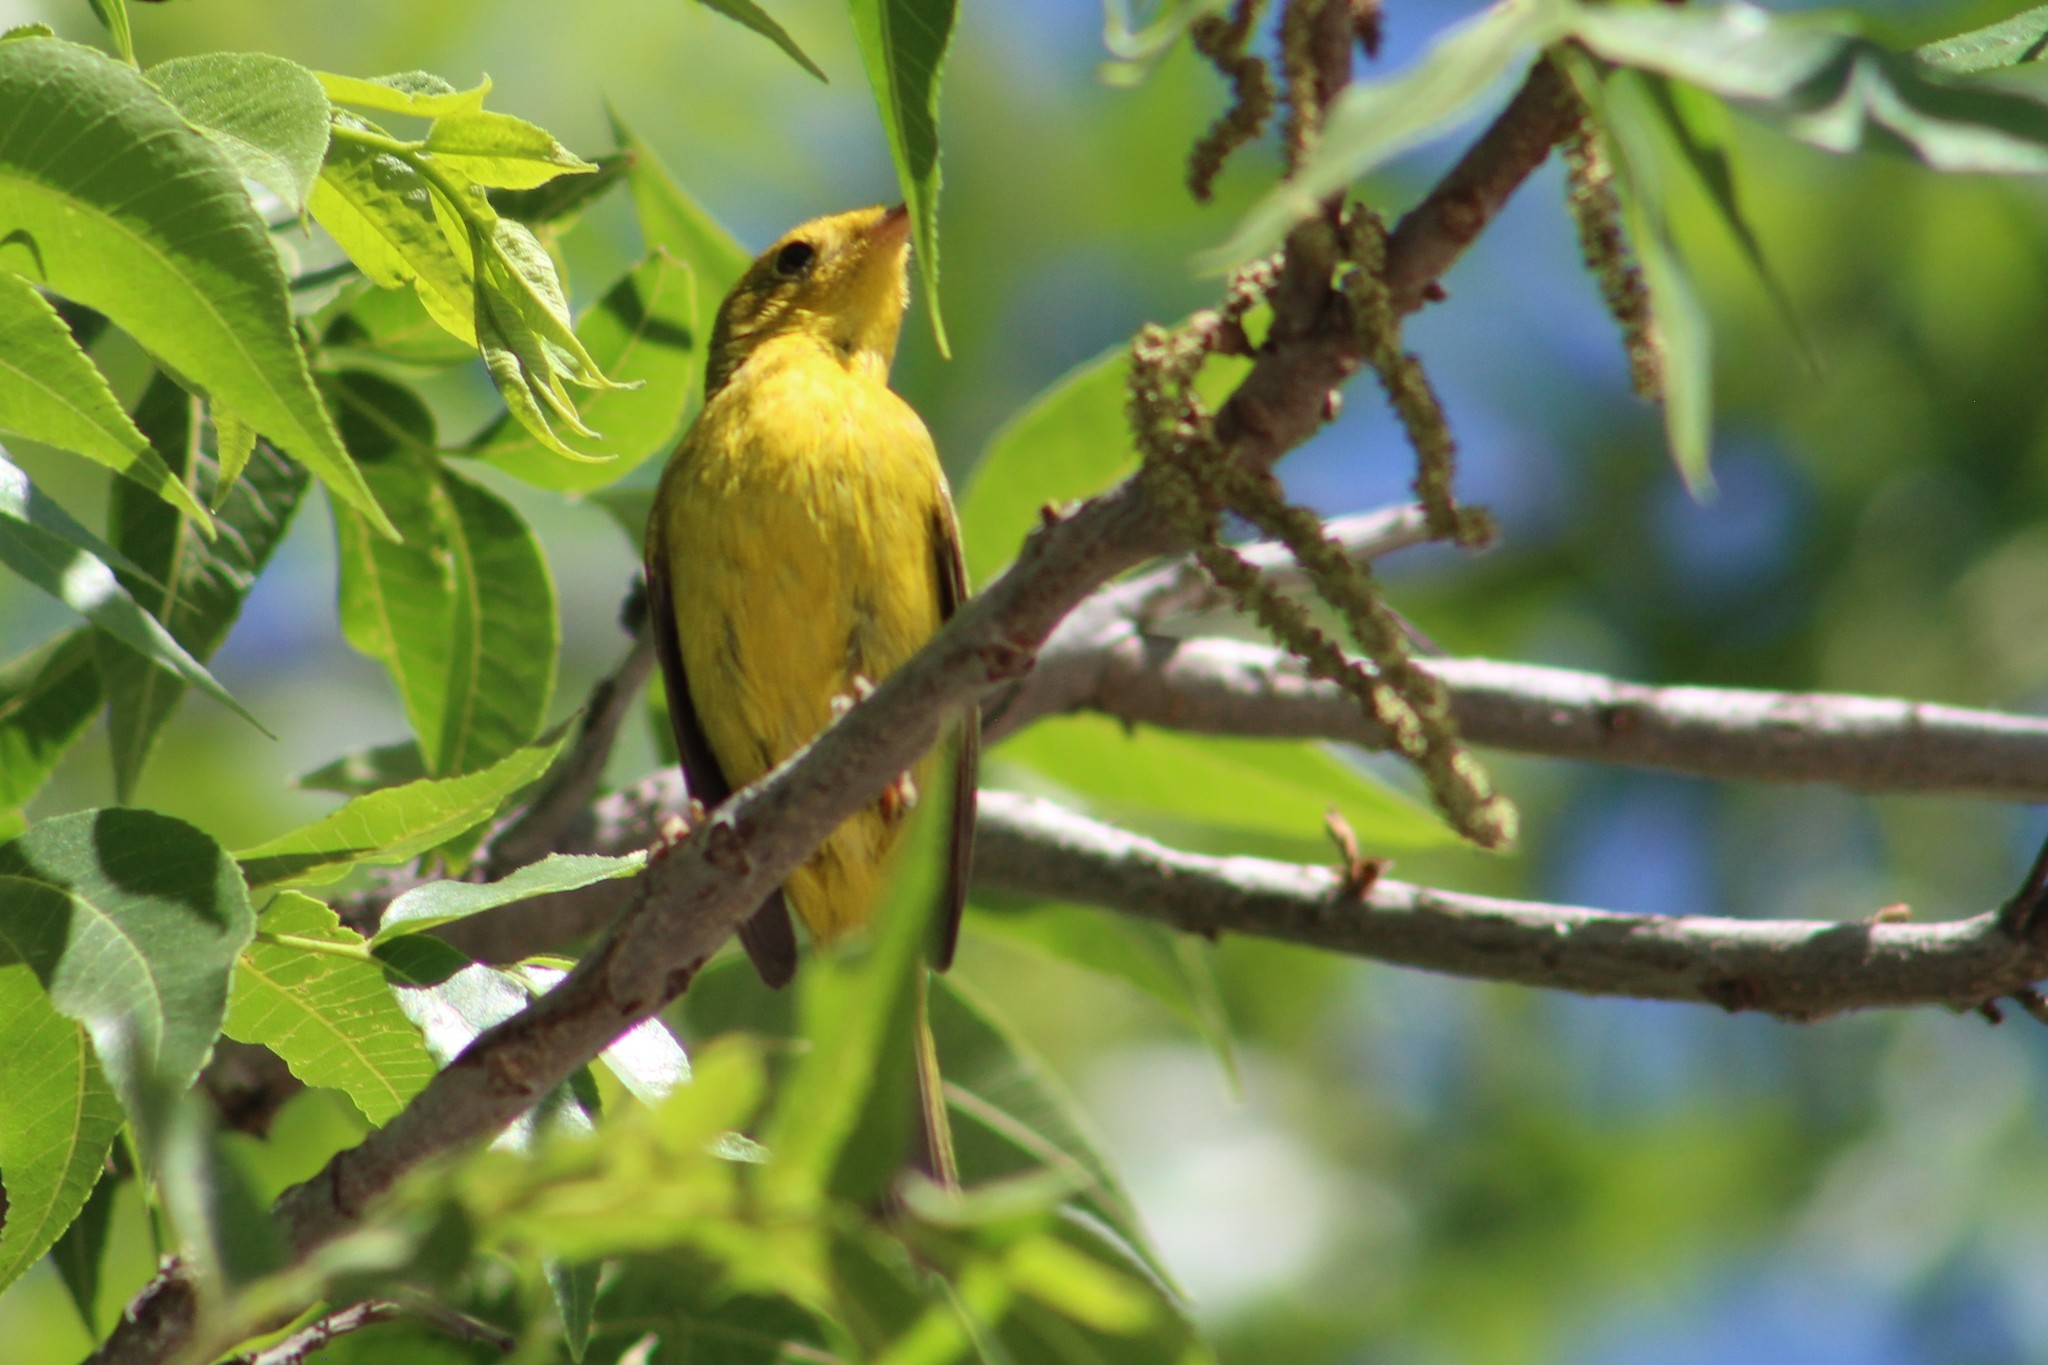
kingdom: Animalia
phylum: Chordata
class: Aves
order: Passeriformes
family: Parulidae
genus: Cardellina
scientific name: Cardellina pusilla
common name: Wilson's warbler
